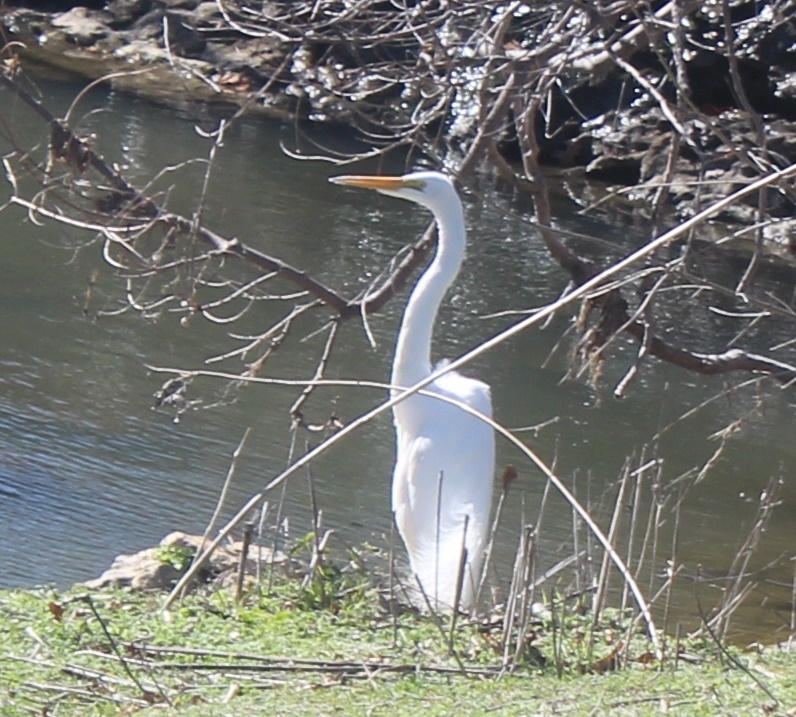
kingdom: Animalia
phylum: Chordata
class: Aves
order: Pelecaniformes
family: Ardeidae
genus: Ardea
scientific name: Ardea alba
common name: Great egret
